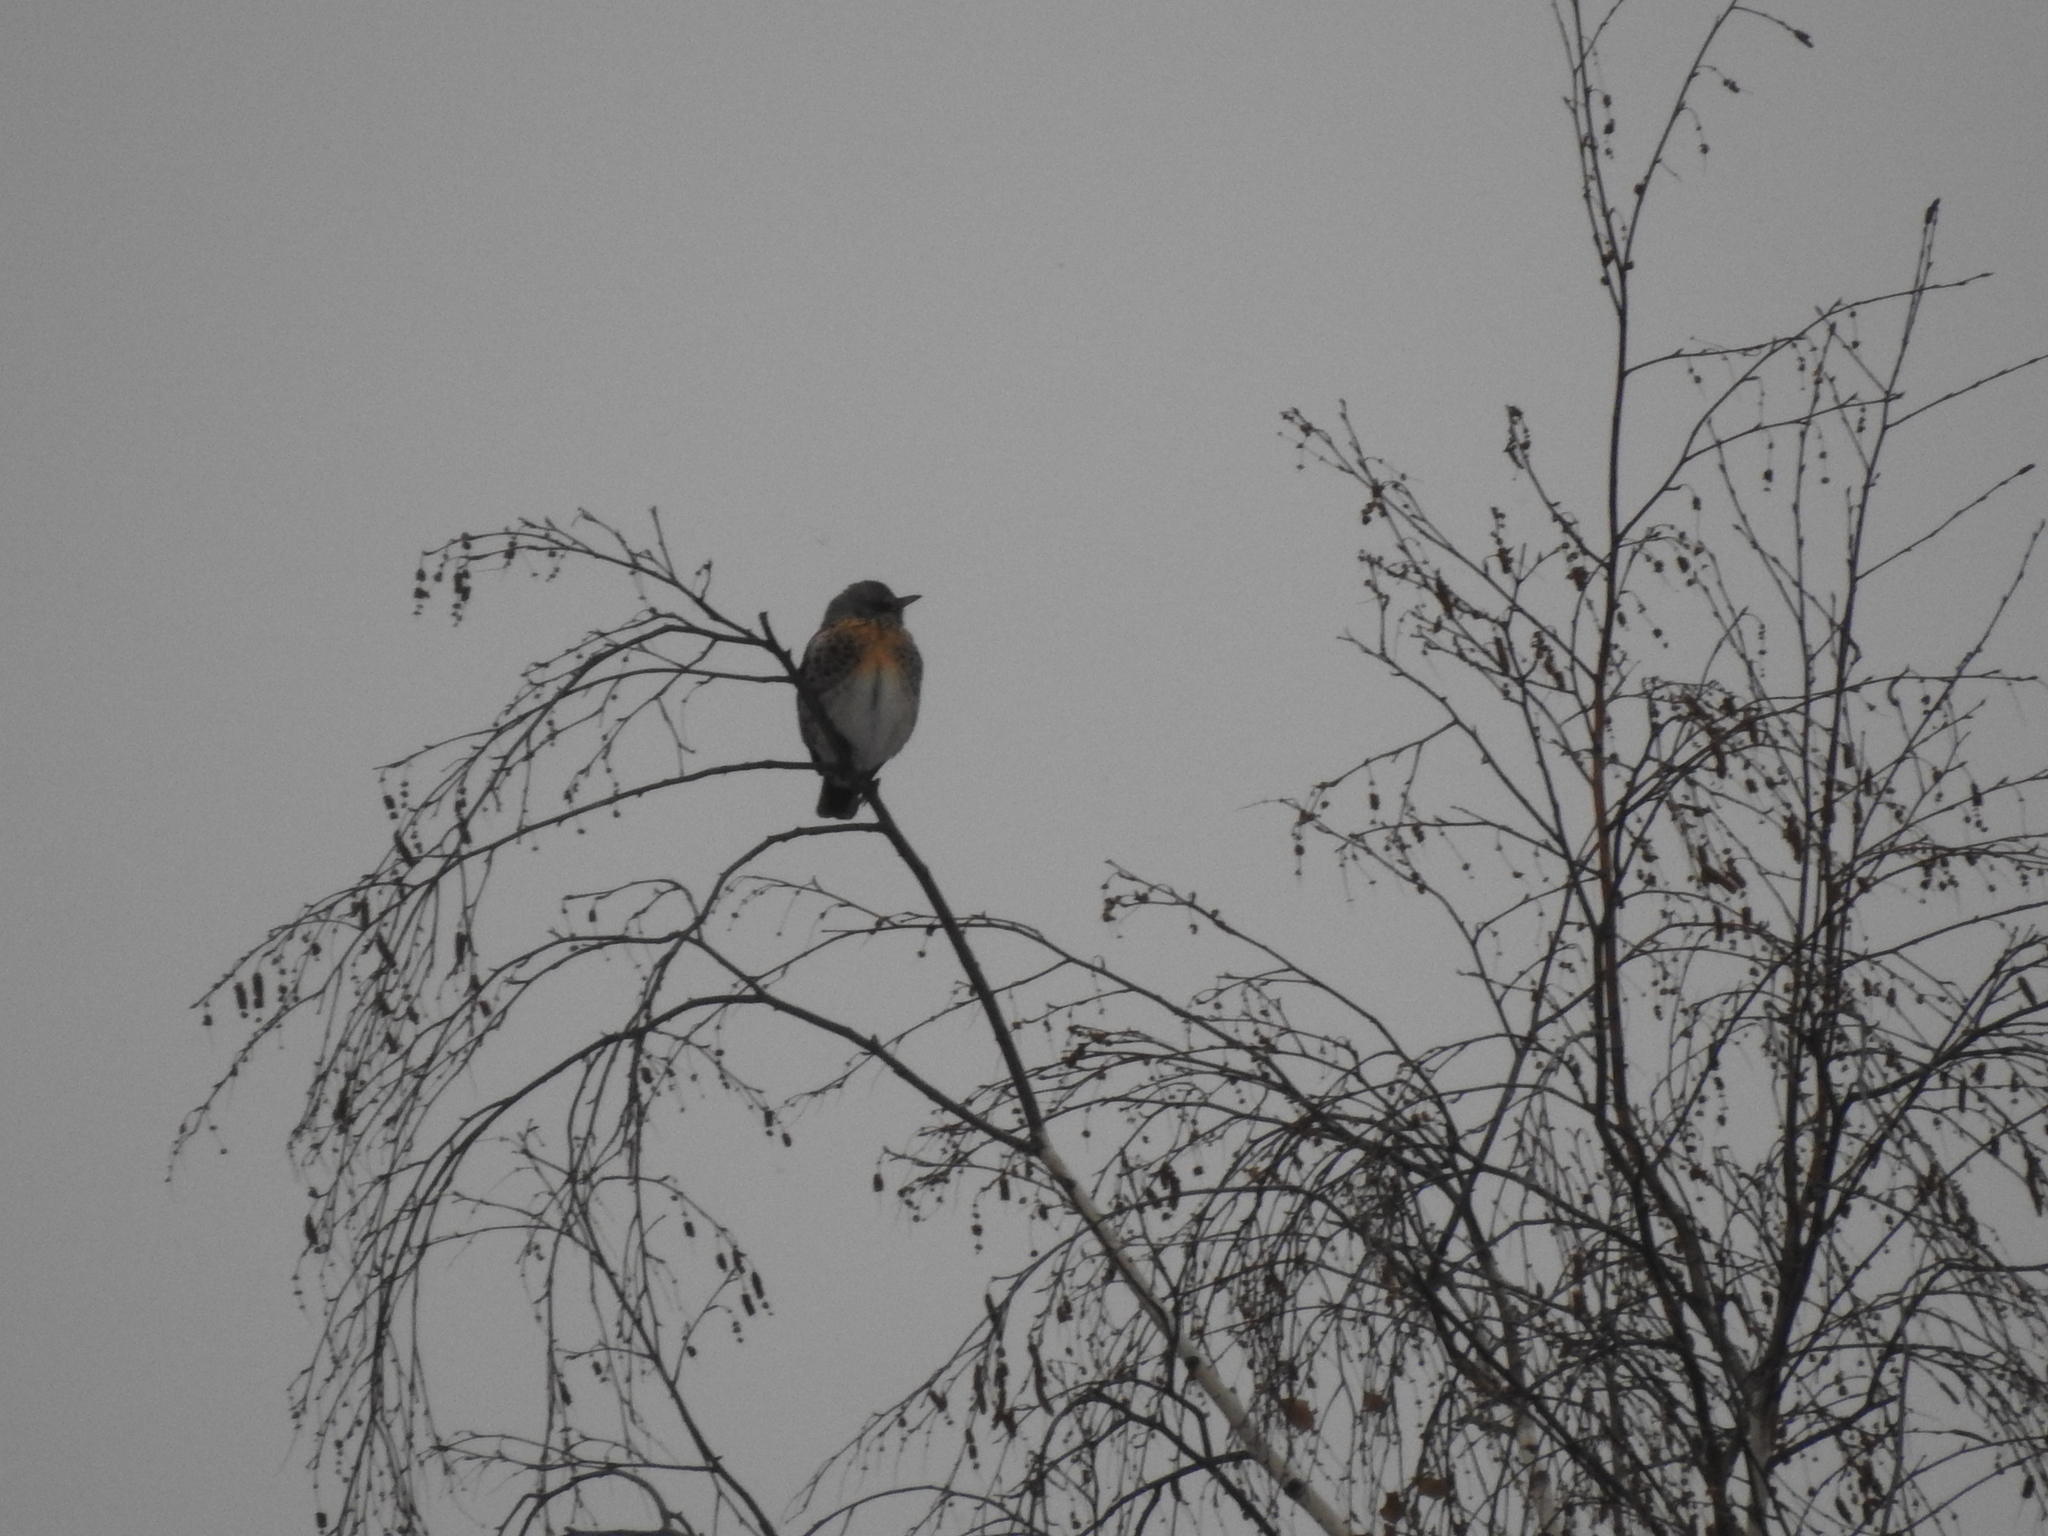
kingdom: Animalia
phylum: Chordata
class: Aves
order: Passeriformes
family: Turdidae
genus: Turdus
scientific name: Turdus pilaris
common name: Fieldfare
